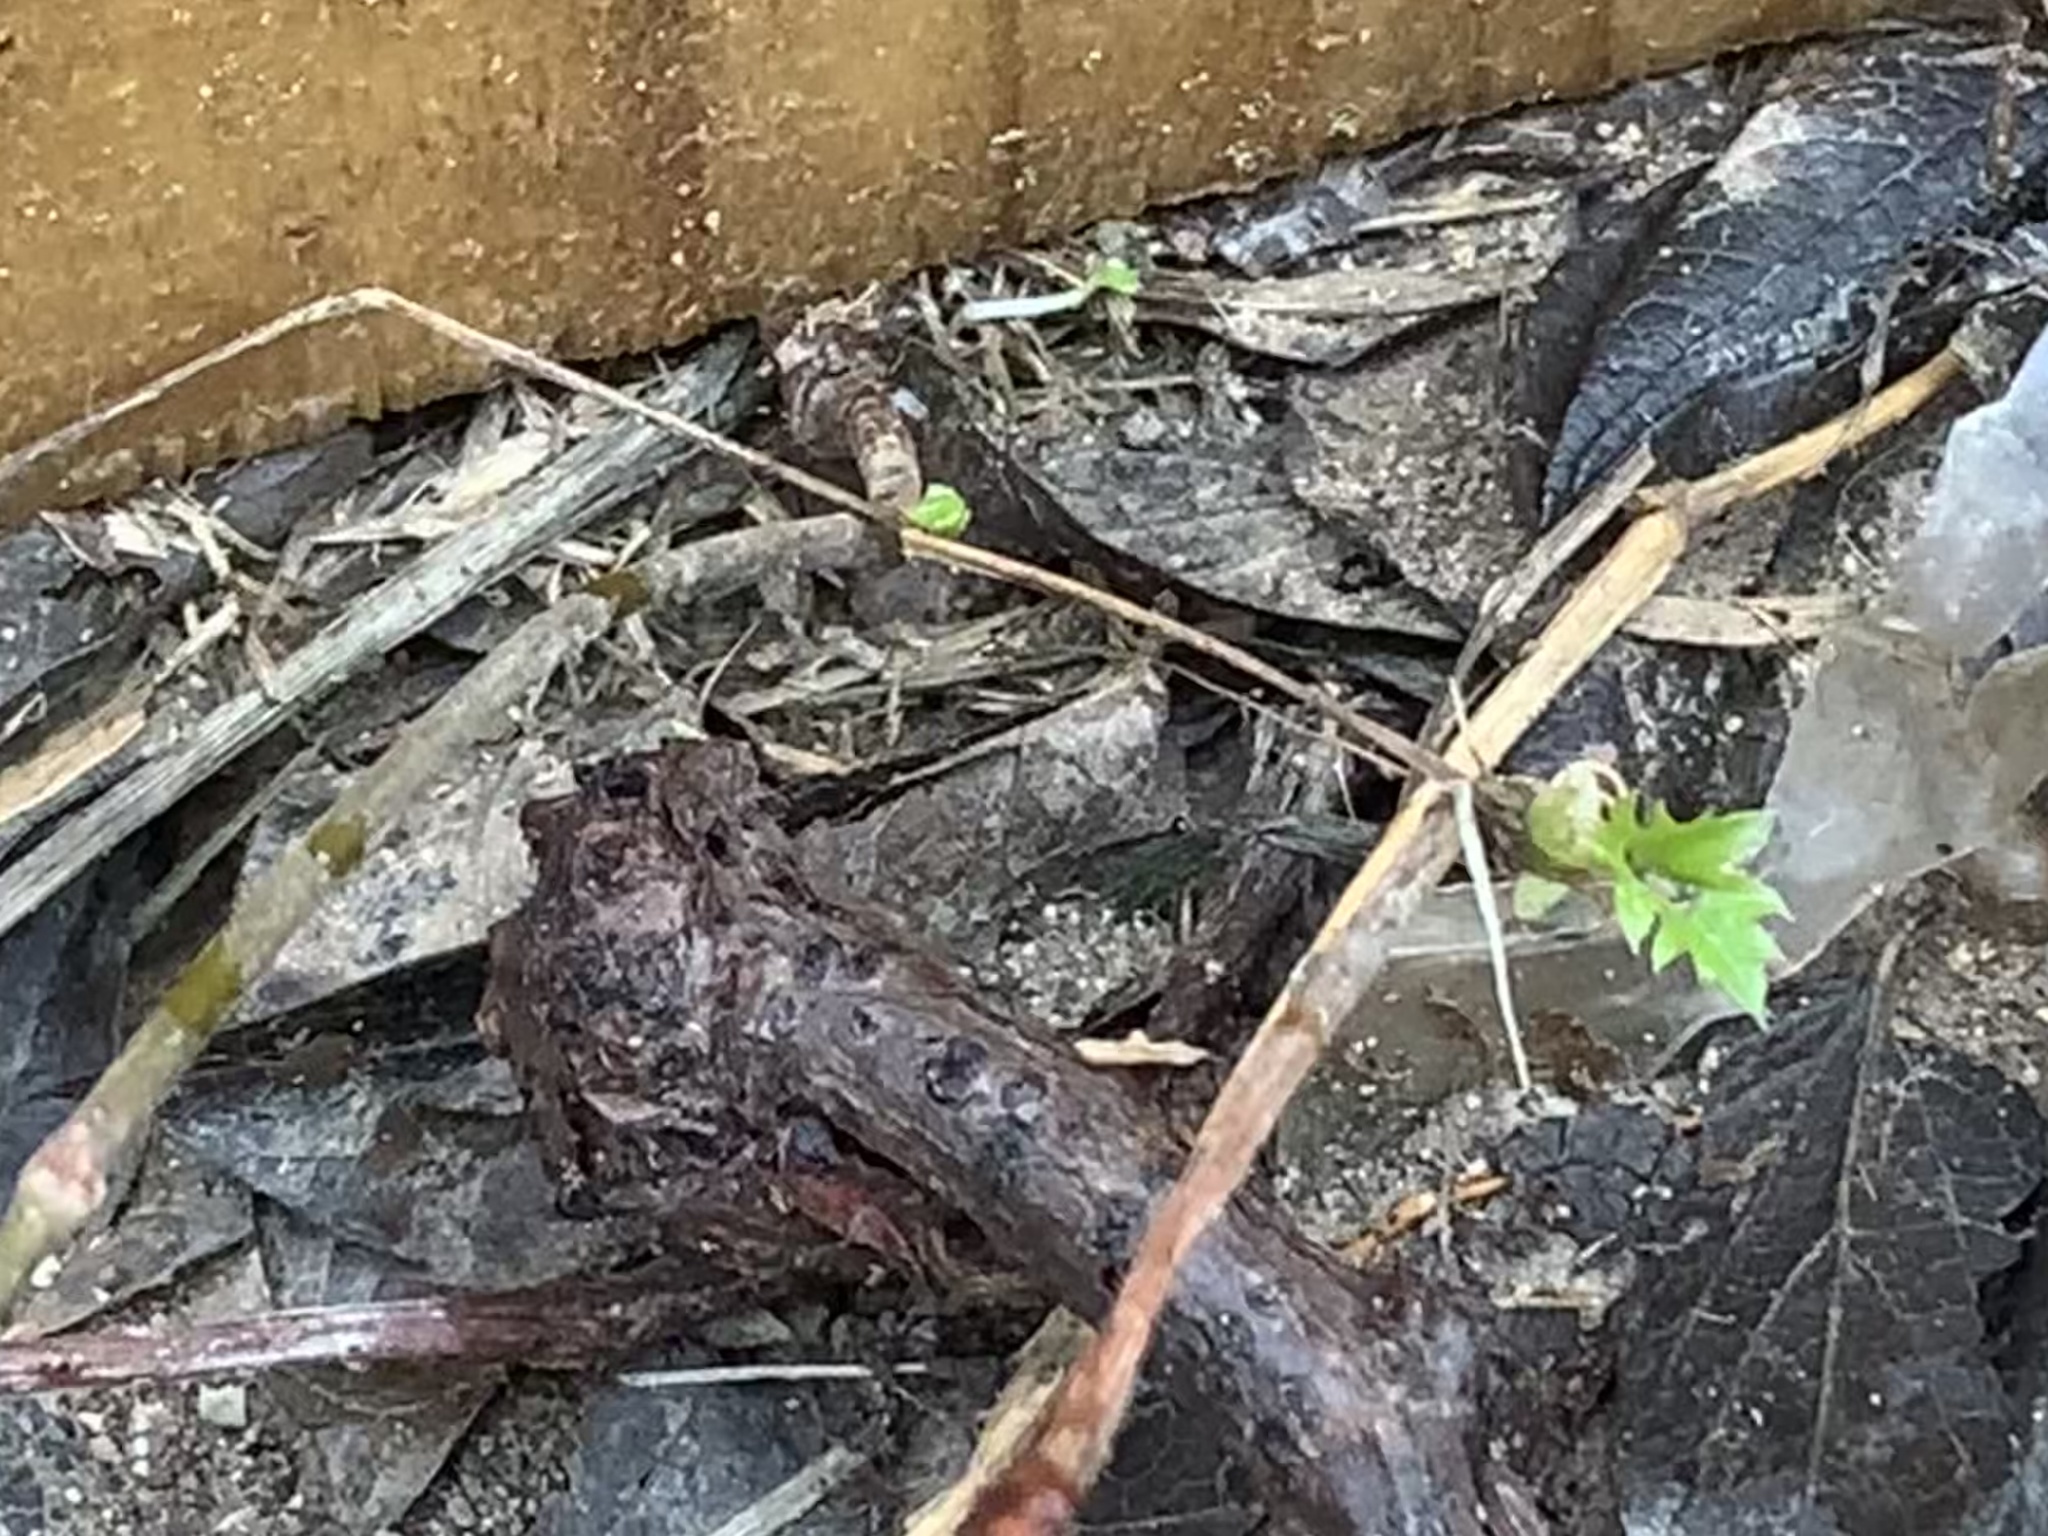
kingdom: Plantae
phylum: Tracheophyta
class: Magnoliopsida
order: Vitales
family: Vitaceae
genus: Cissus
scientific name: Cissus trifoliata
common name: Vine-sorrel
